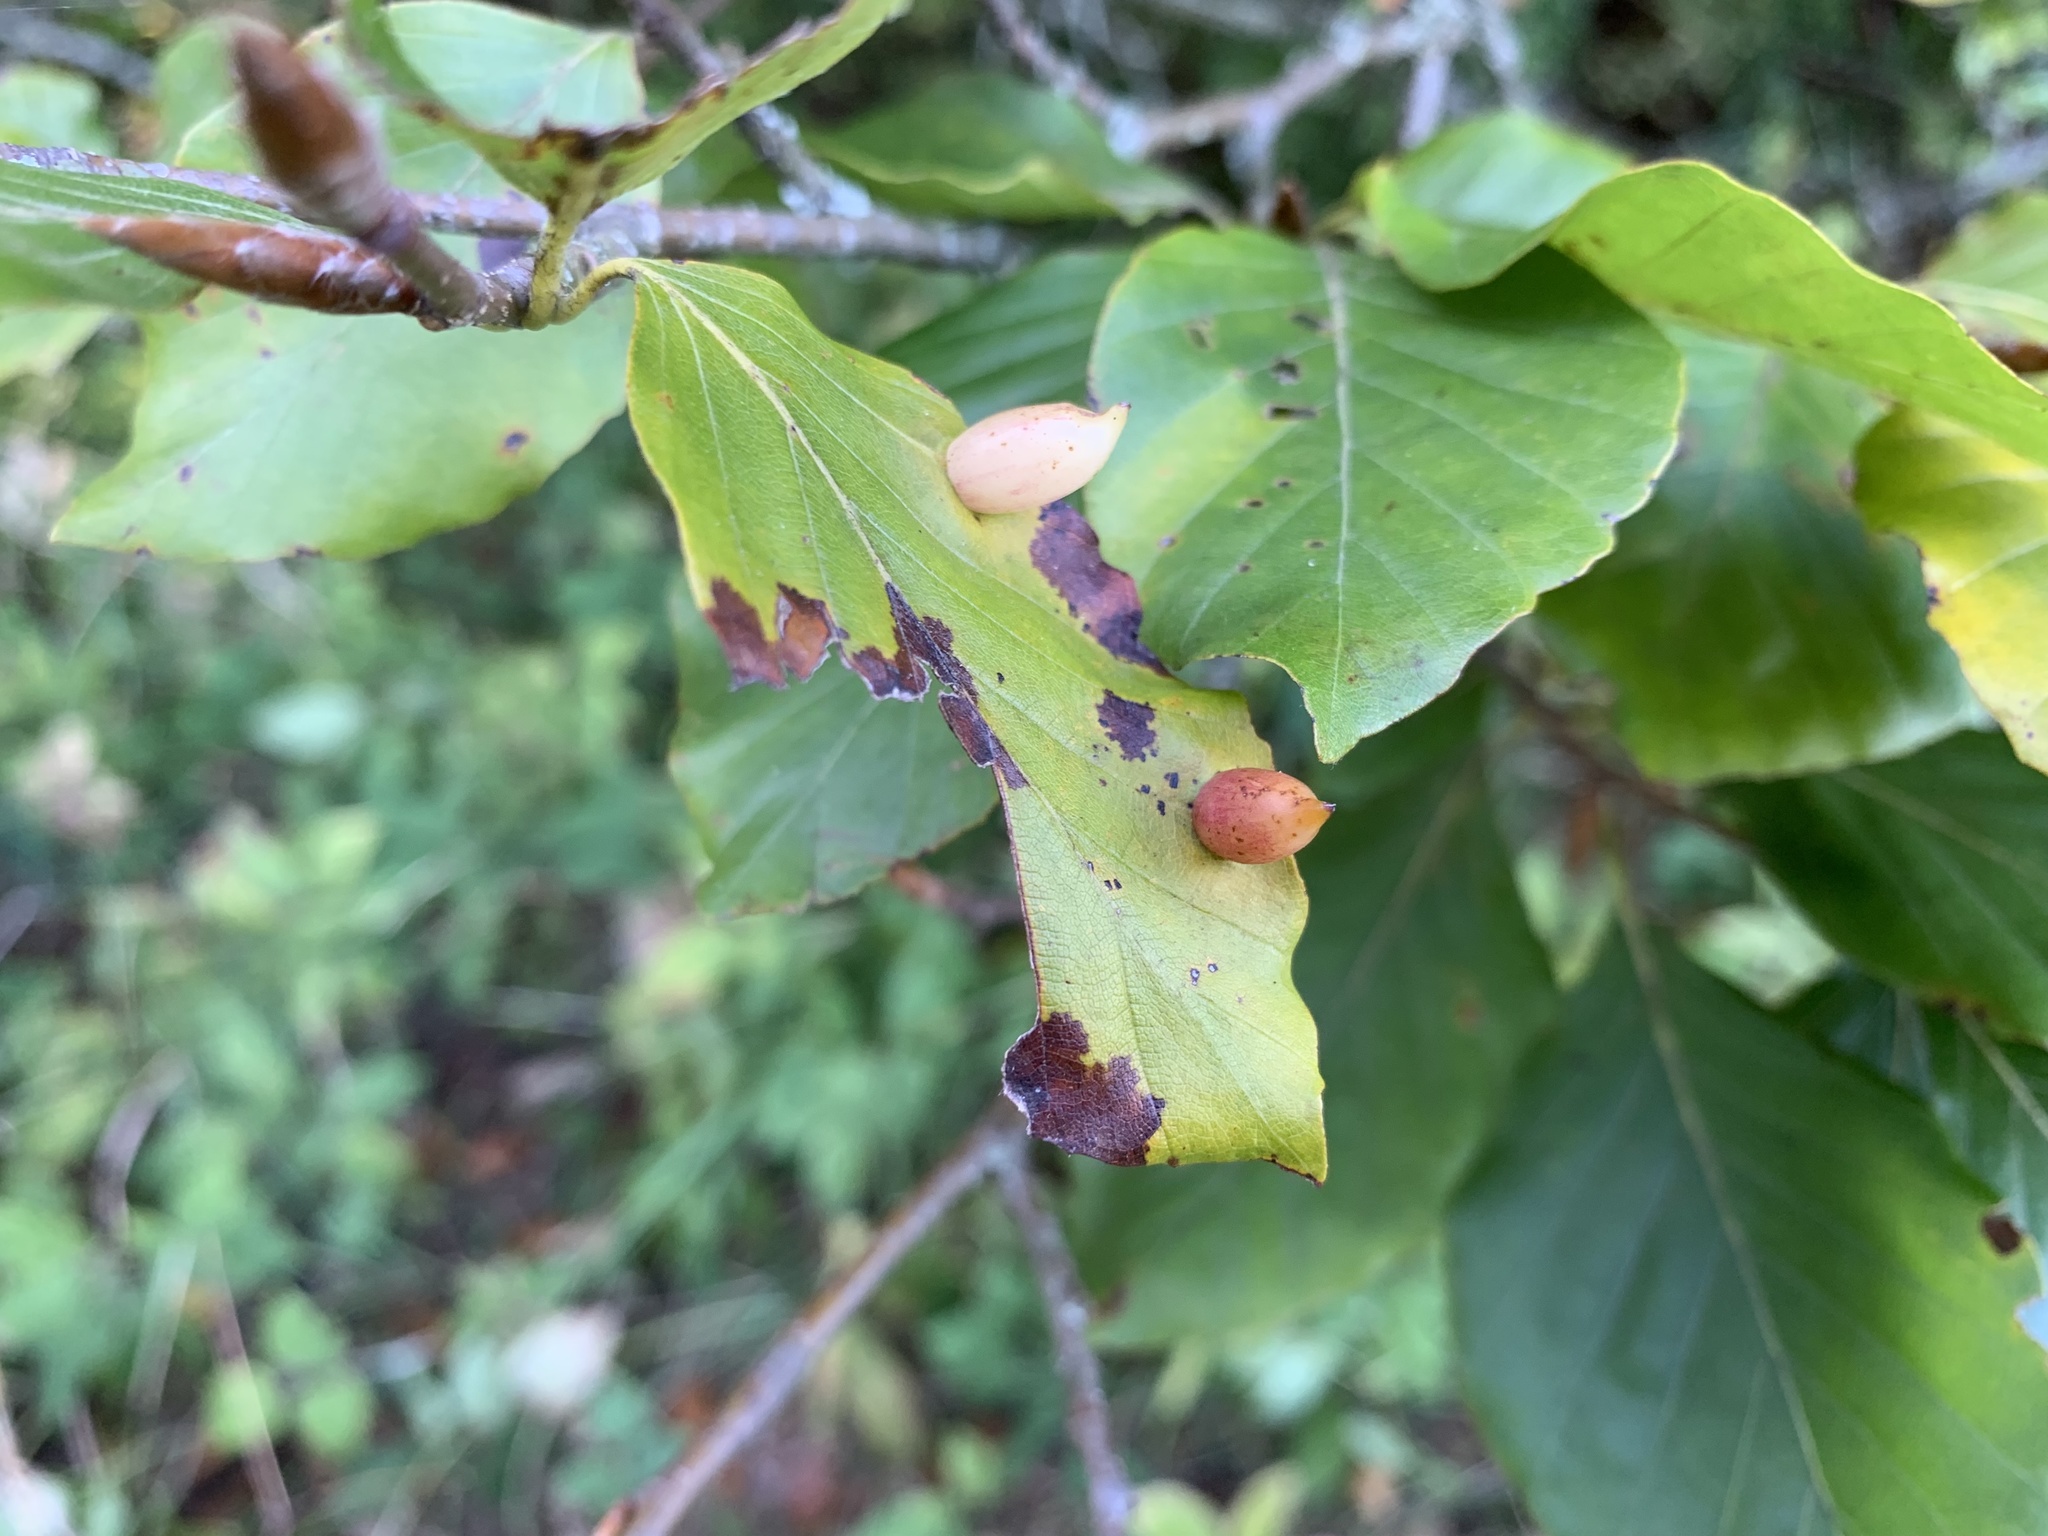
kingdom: Animalia
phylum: Arthropoda
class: Insecta
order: Diptera
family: Cecidomyiidae
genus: Mikiola
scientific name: Mikiola fagi
